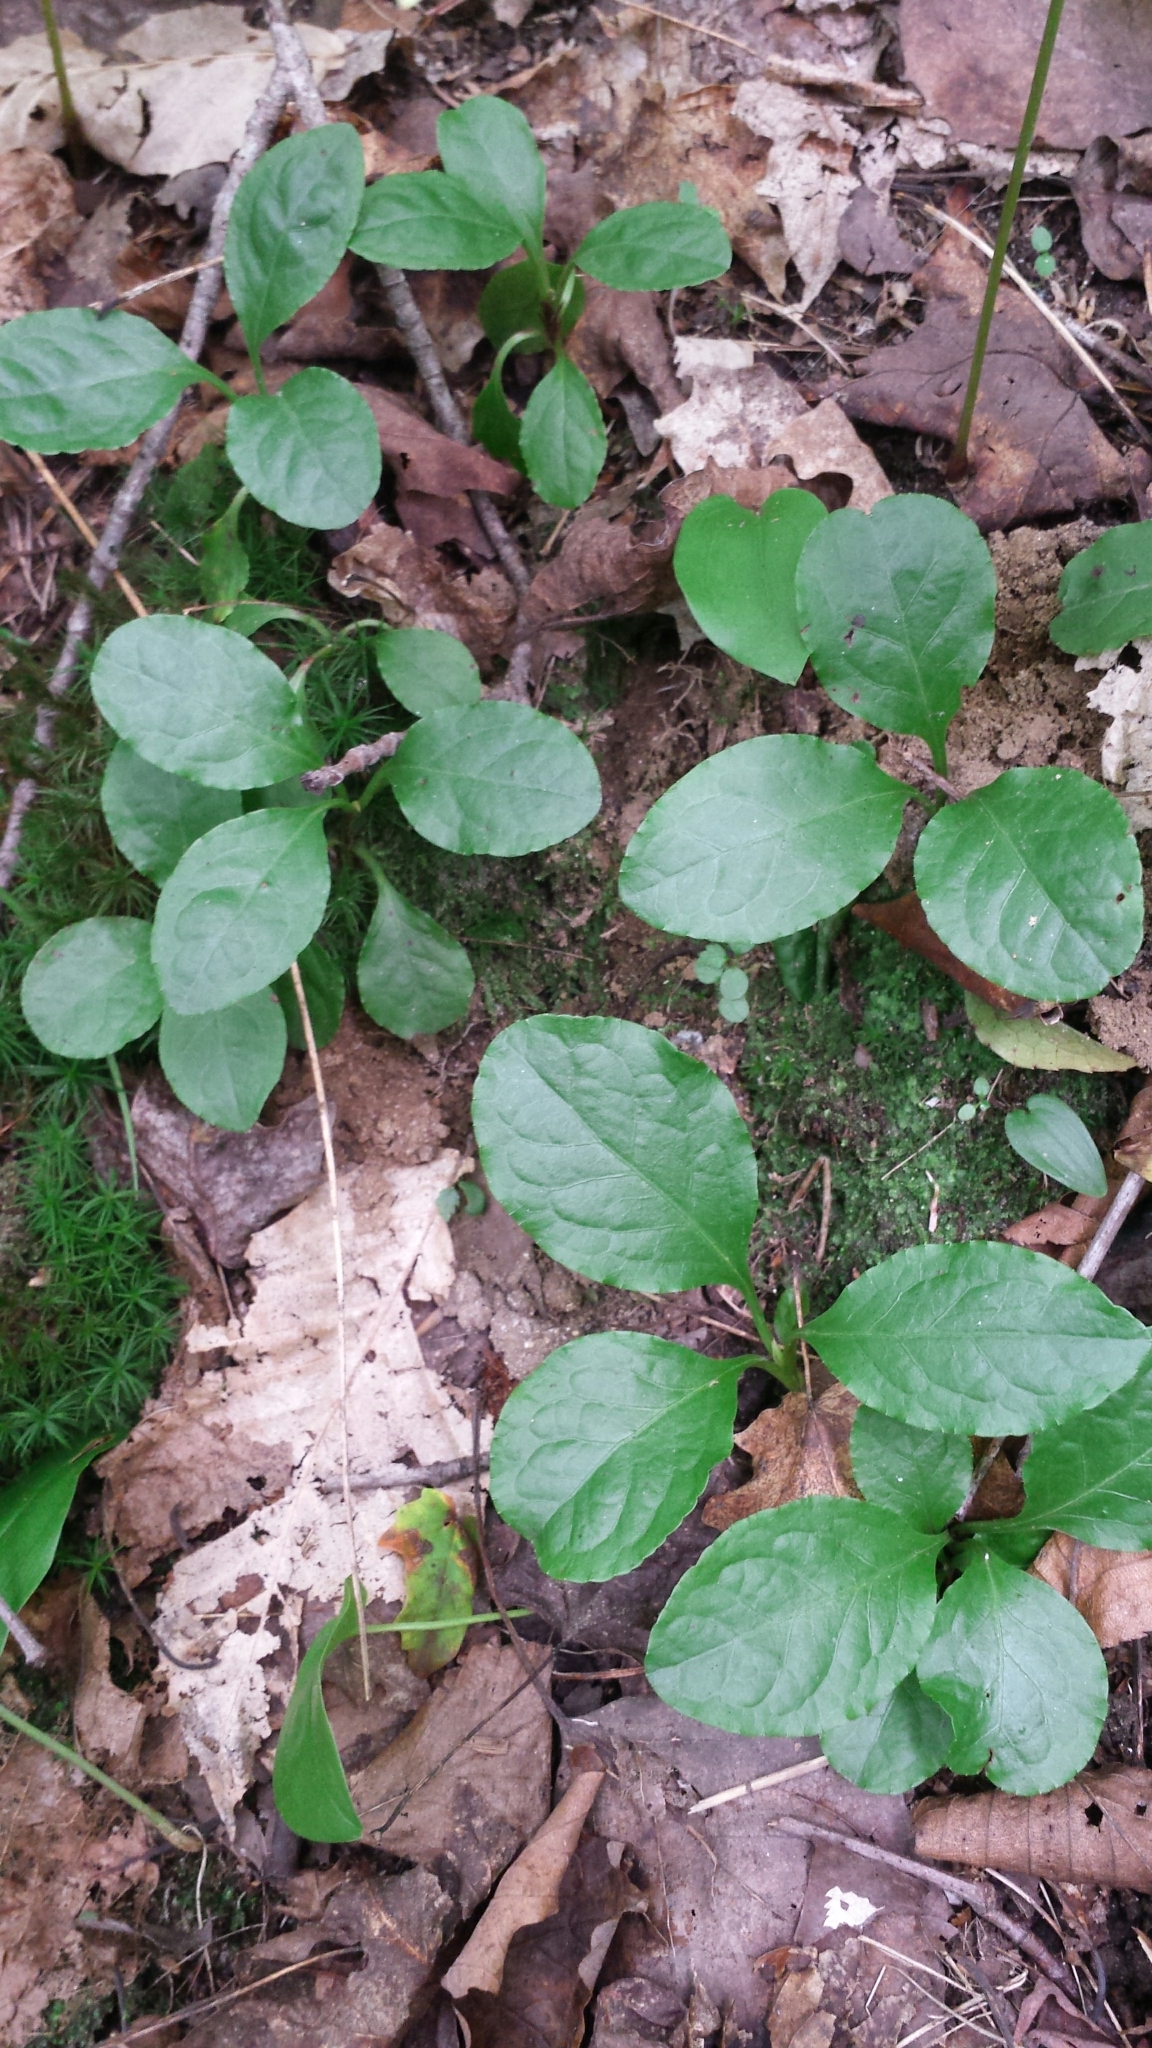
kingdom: Plantae
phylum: Tracheophyta
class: Magnoliopsida
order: Ericales
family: Ericaceae
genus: Pyrola
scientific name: Pyrola elliptica
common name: Shinleaf
